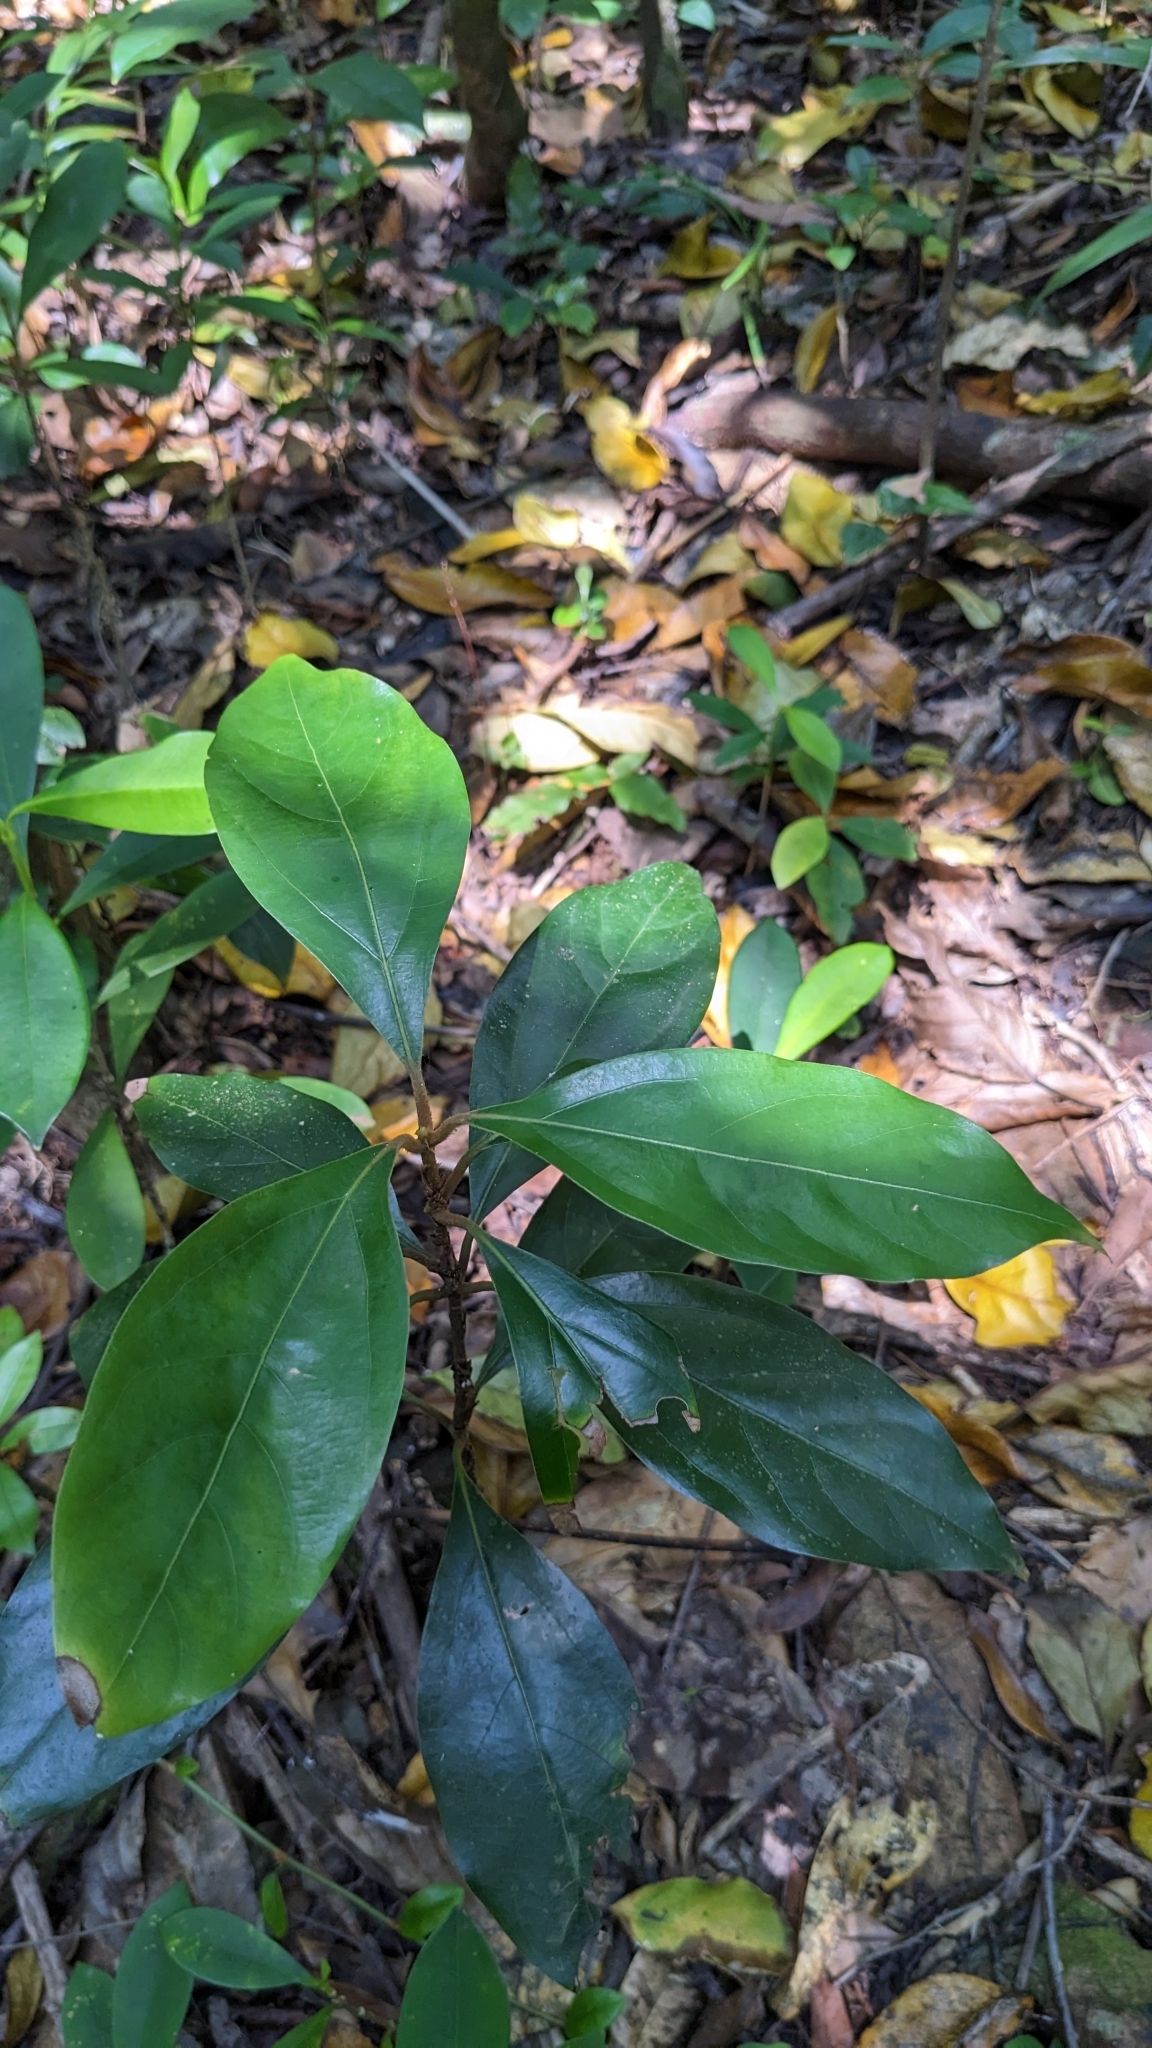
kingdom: Plantae
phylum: Tracheophyta
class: Magnoliopsida
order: Laurales
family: Lauraceae
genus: Neolitsea
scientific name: Neolitsea villosa
